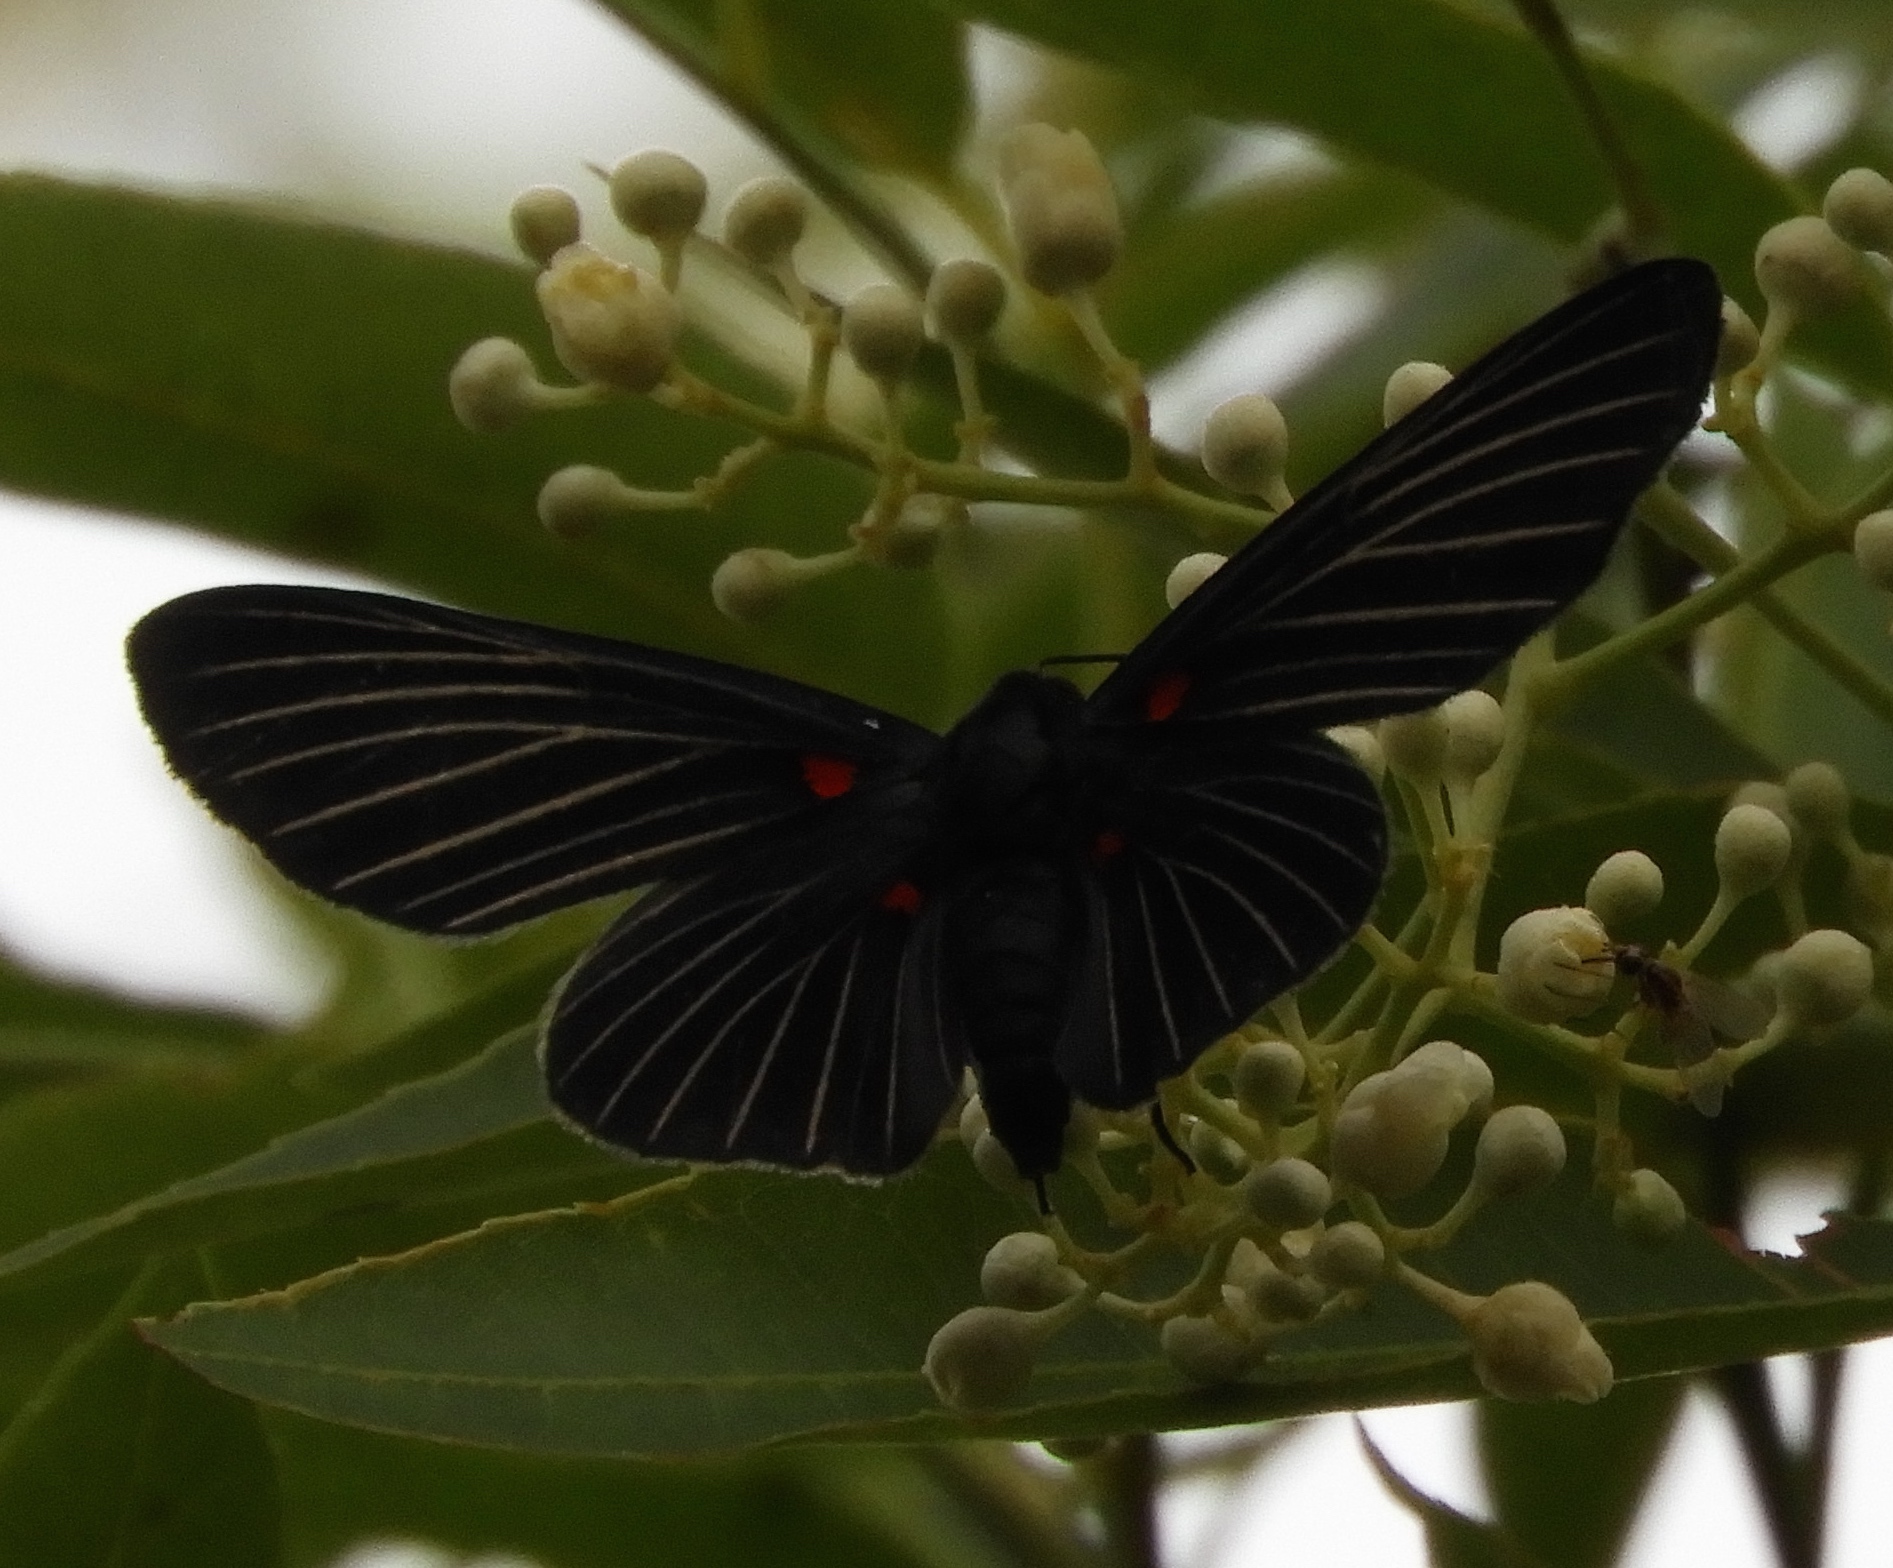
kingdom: Animalia
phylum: Arthropoda
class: Insecta
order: Lepidoptera
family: Lycaenidae
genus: Melanis
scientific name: Melanis
